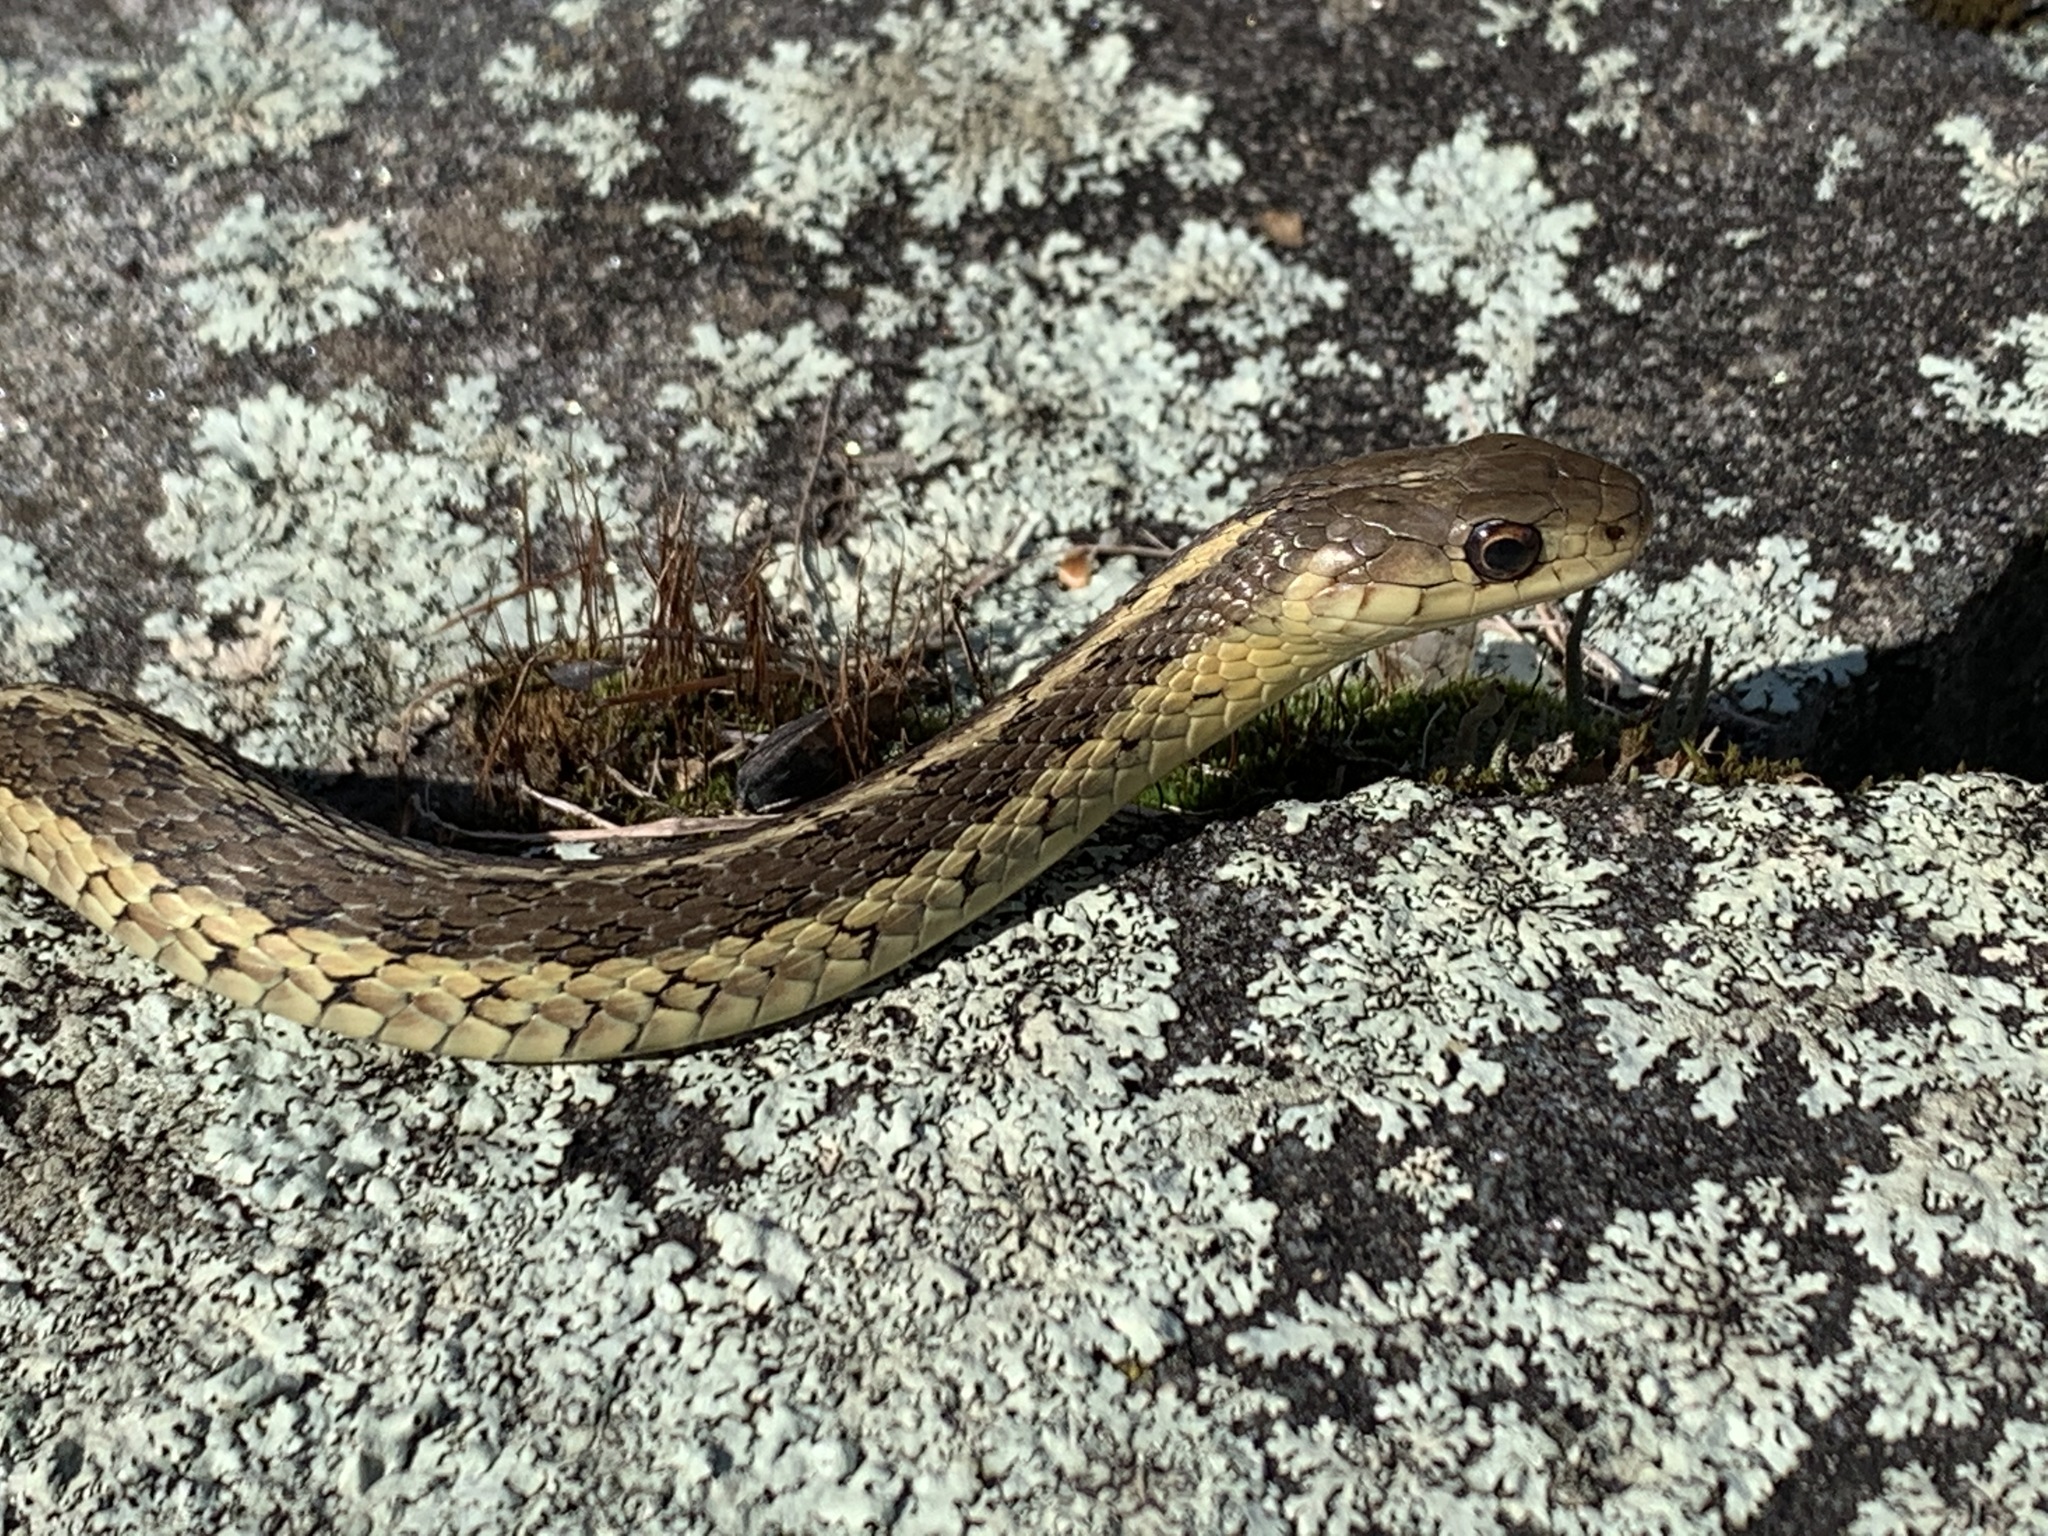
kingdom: Animalia
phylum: Chordata
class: Squamata
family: Colubridae
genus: Thamnophis
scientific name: Thamnophis sirtalis
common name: Common garter snake
